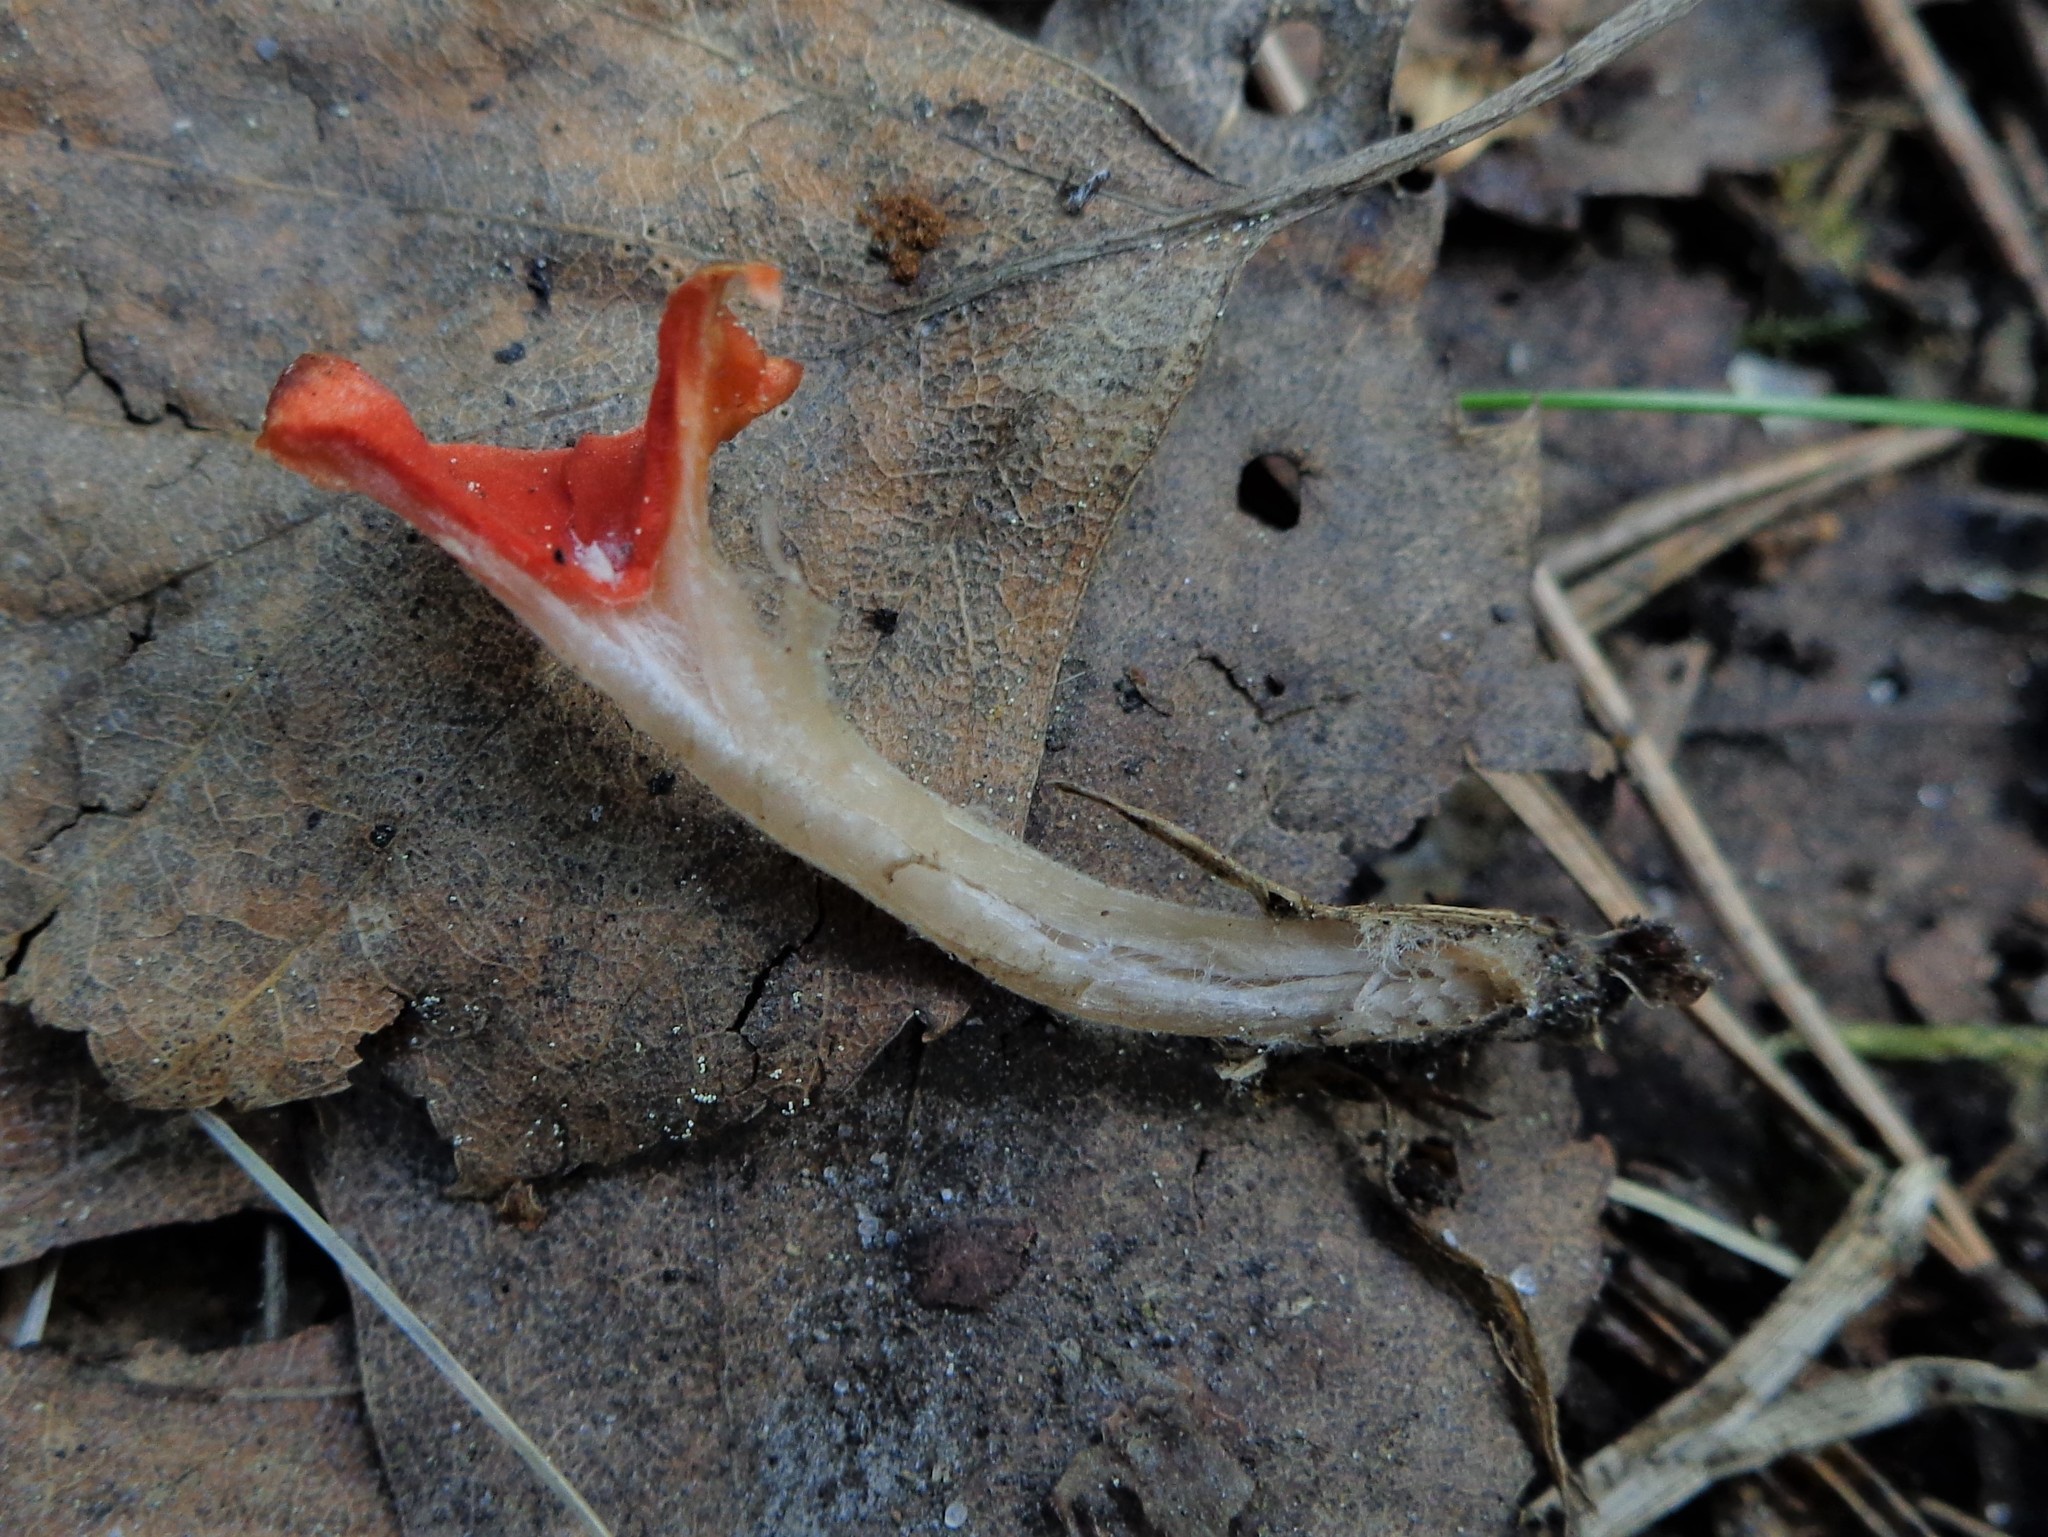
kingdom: Fungi
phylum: Ascomycota
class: Pezizomycetes
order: Pezizales
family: Sarcoscyphaceae
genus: Microstoma
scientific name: Microstoma protractum
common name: Rosy goblet
